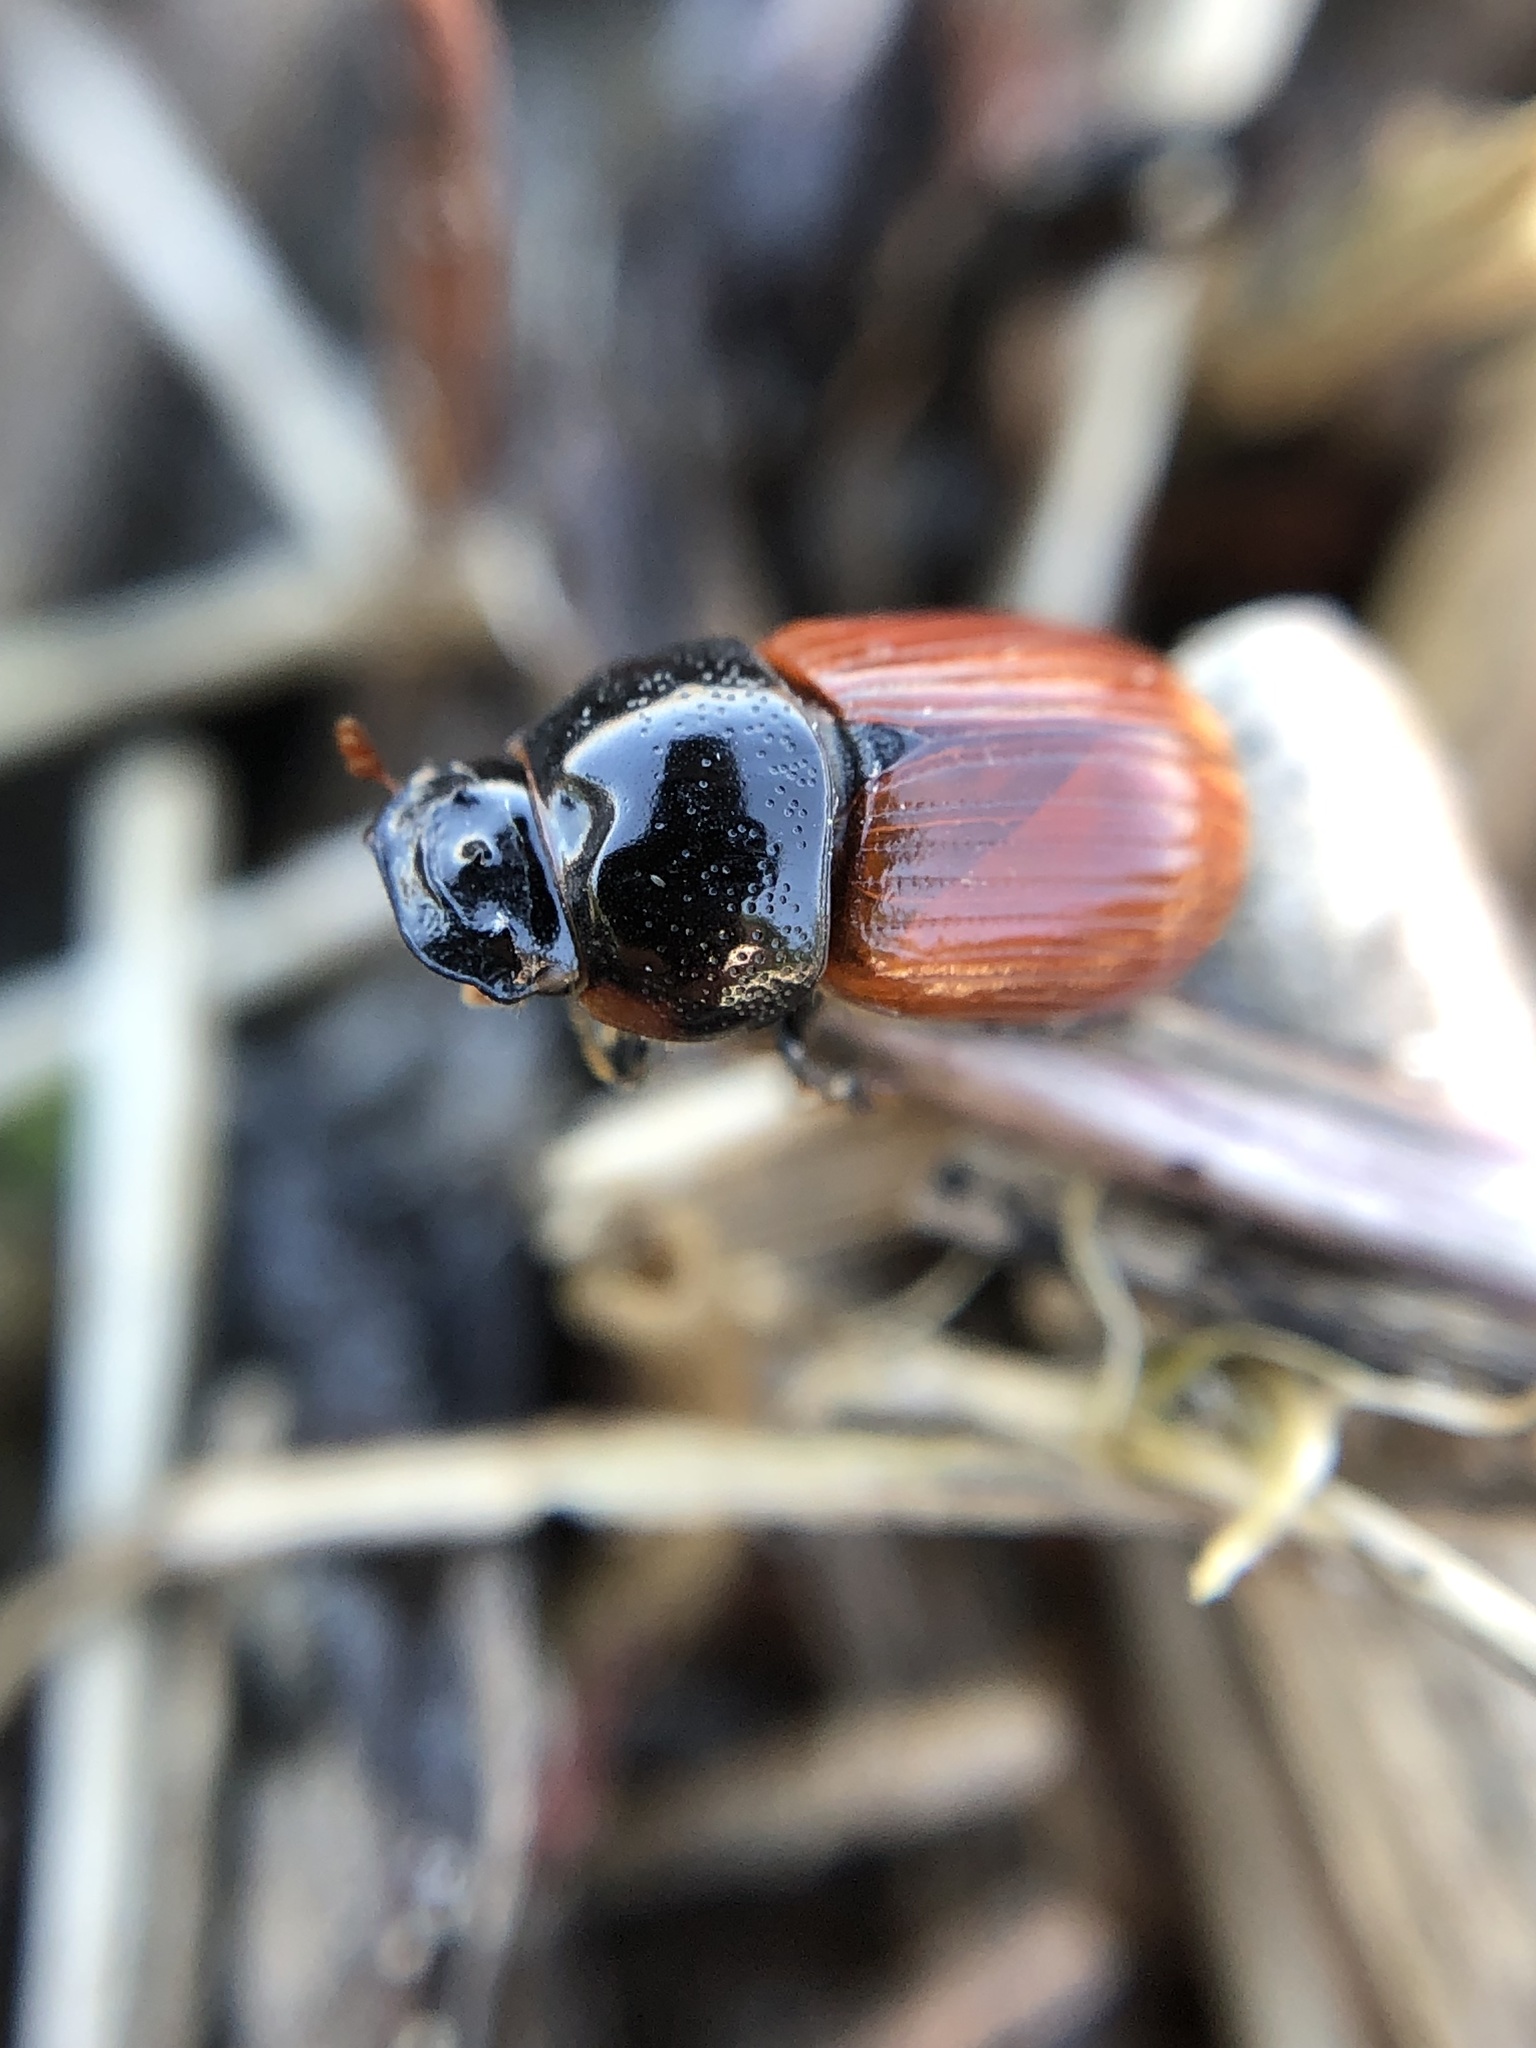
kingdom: Animalia
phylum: Arthropoda
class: Insecta
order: Coleoptera
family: Scarabaeidae
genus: Aphodius
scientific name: Aphodius pedellus
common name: Common dung beetle
